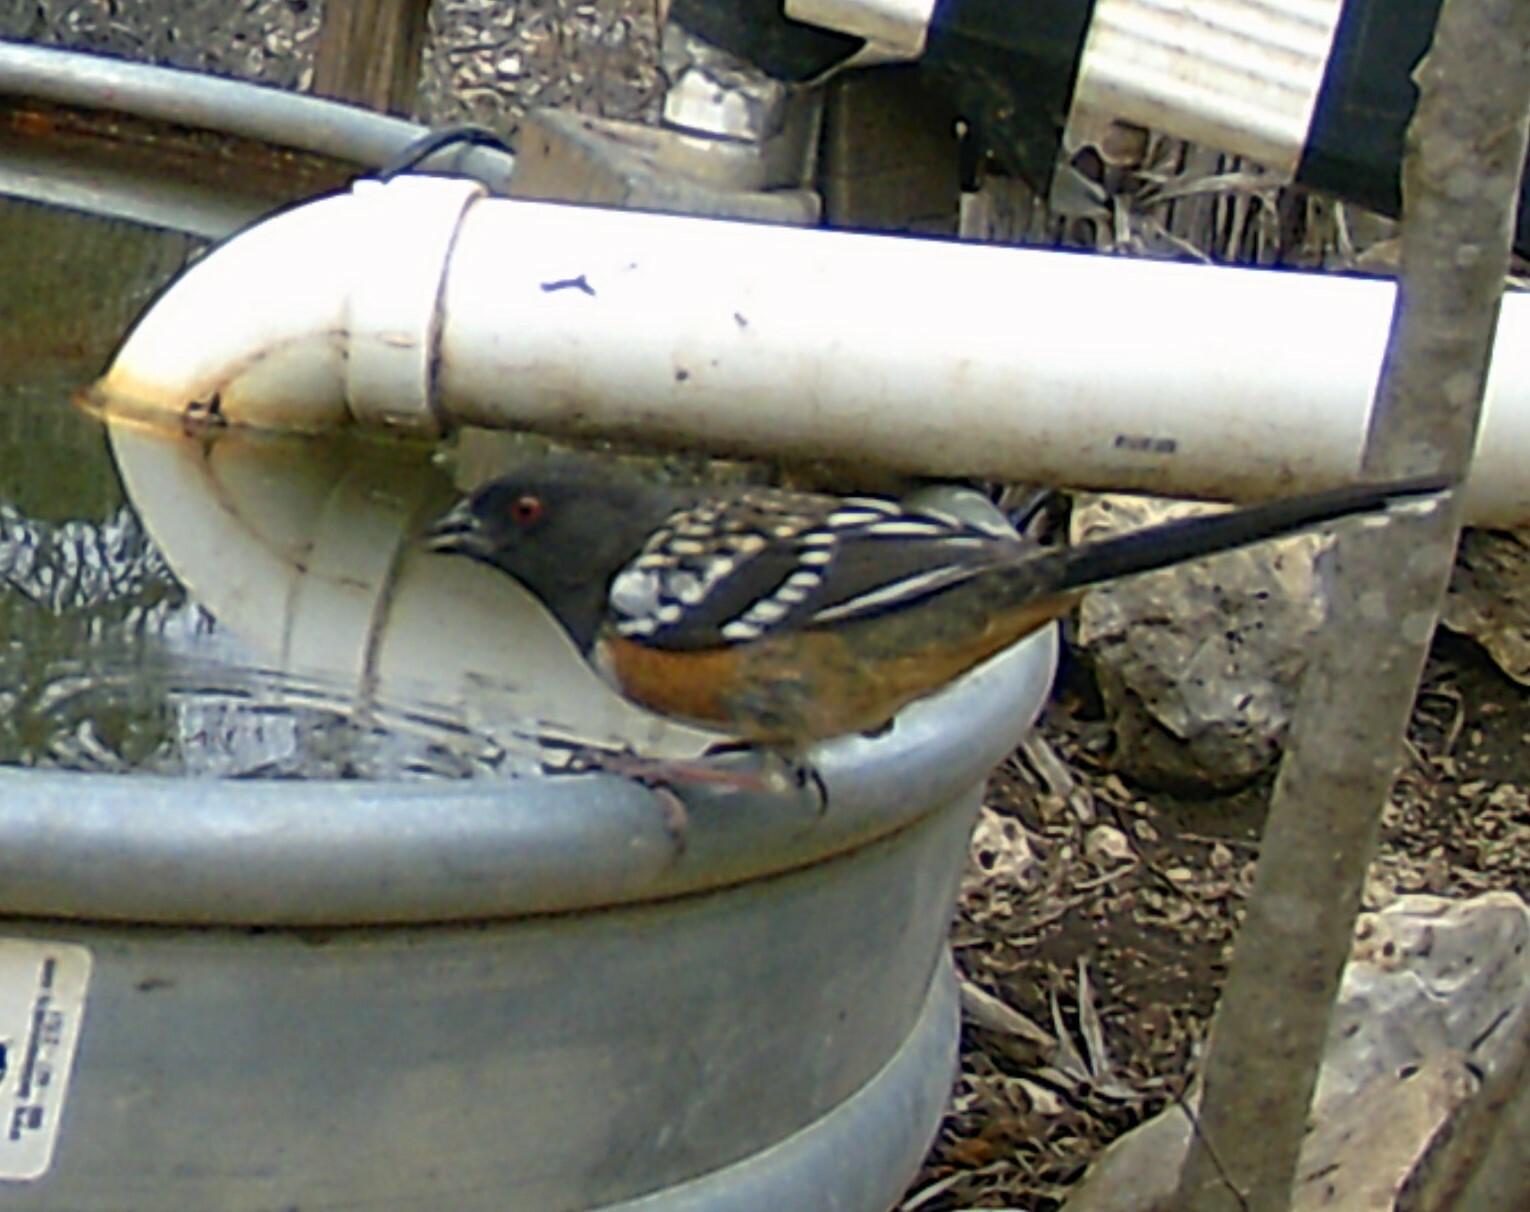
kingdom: Animalia
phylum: Chordata
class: Aves
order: Passeriformes
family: Passerellidae
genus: Pipilo
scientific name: Pipilo maculatus
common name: Spotted towhee
